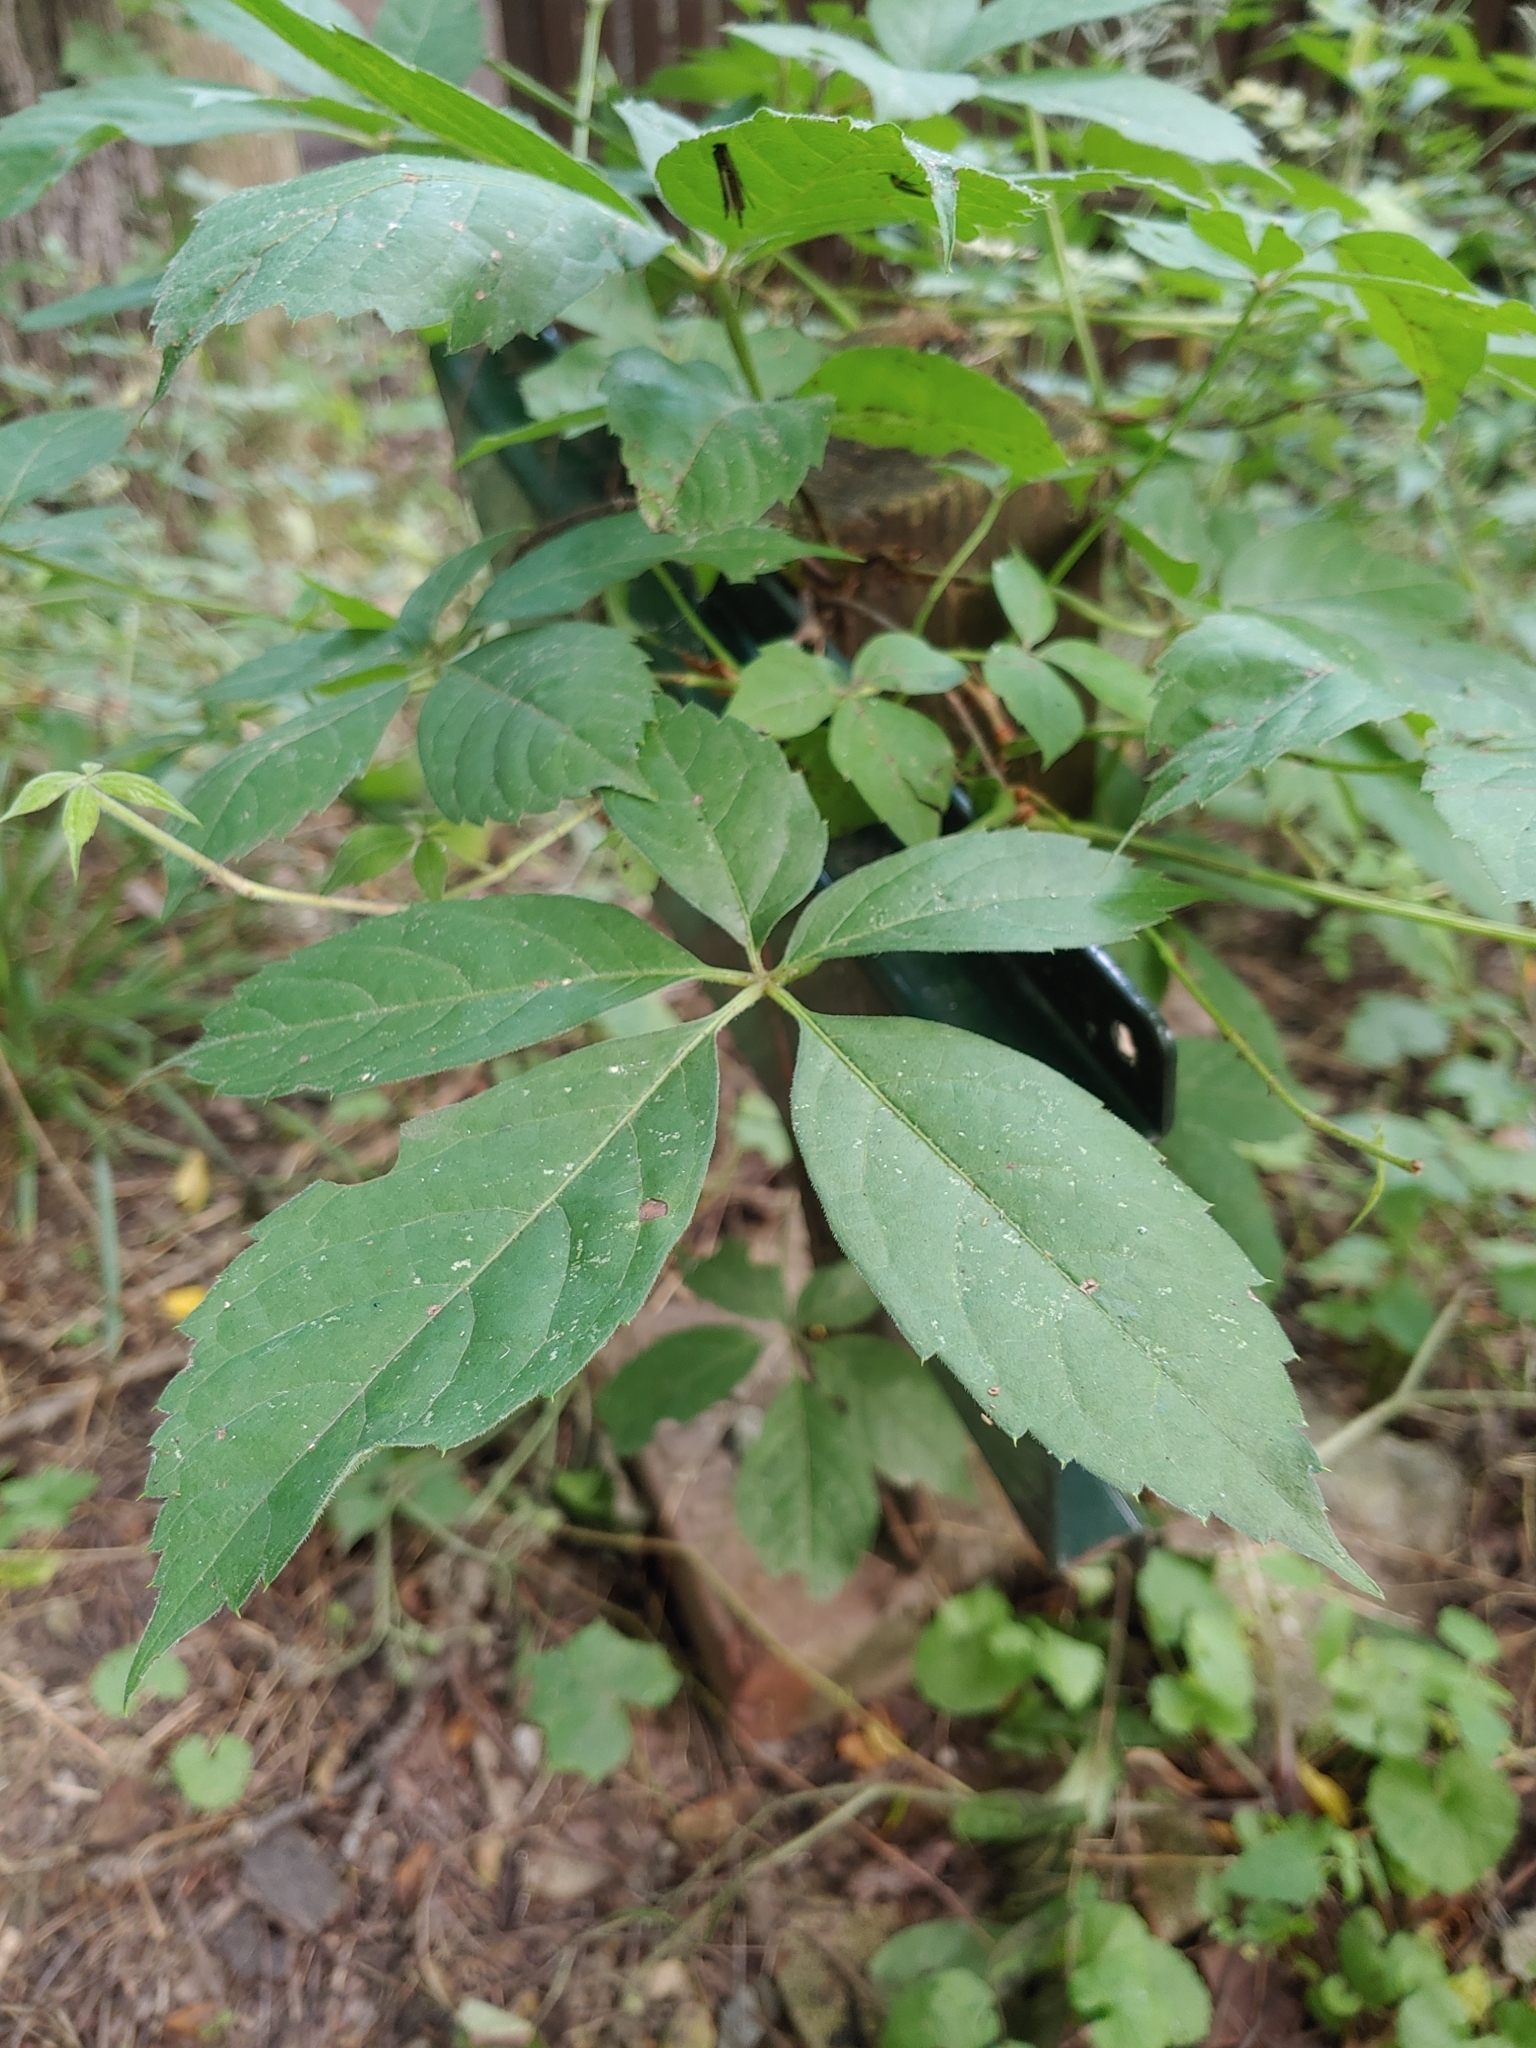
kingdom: Plantae
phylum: Tracheophyta
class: Magnoliopsida
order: Vitales
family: Vitaceae
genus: Parthenocissus
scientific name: Parthenocissus quinquefolia
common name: Virginia-creeper
